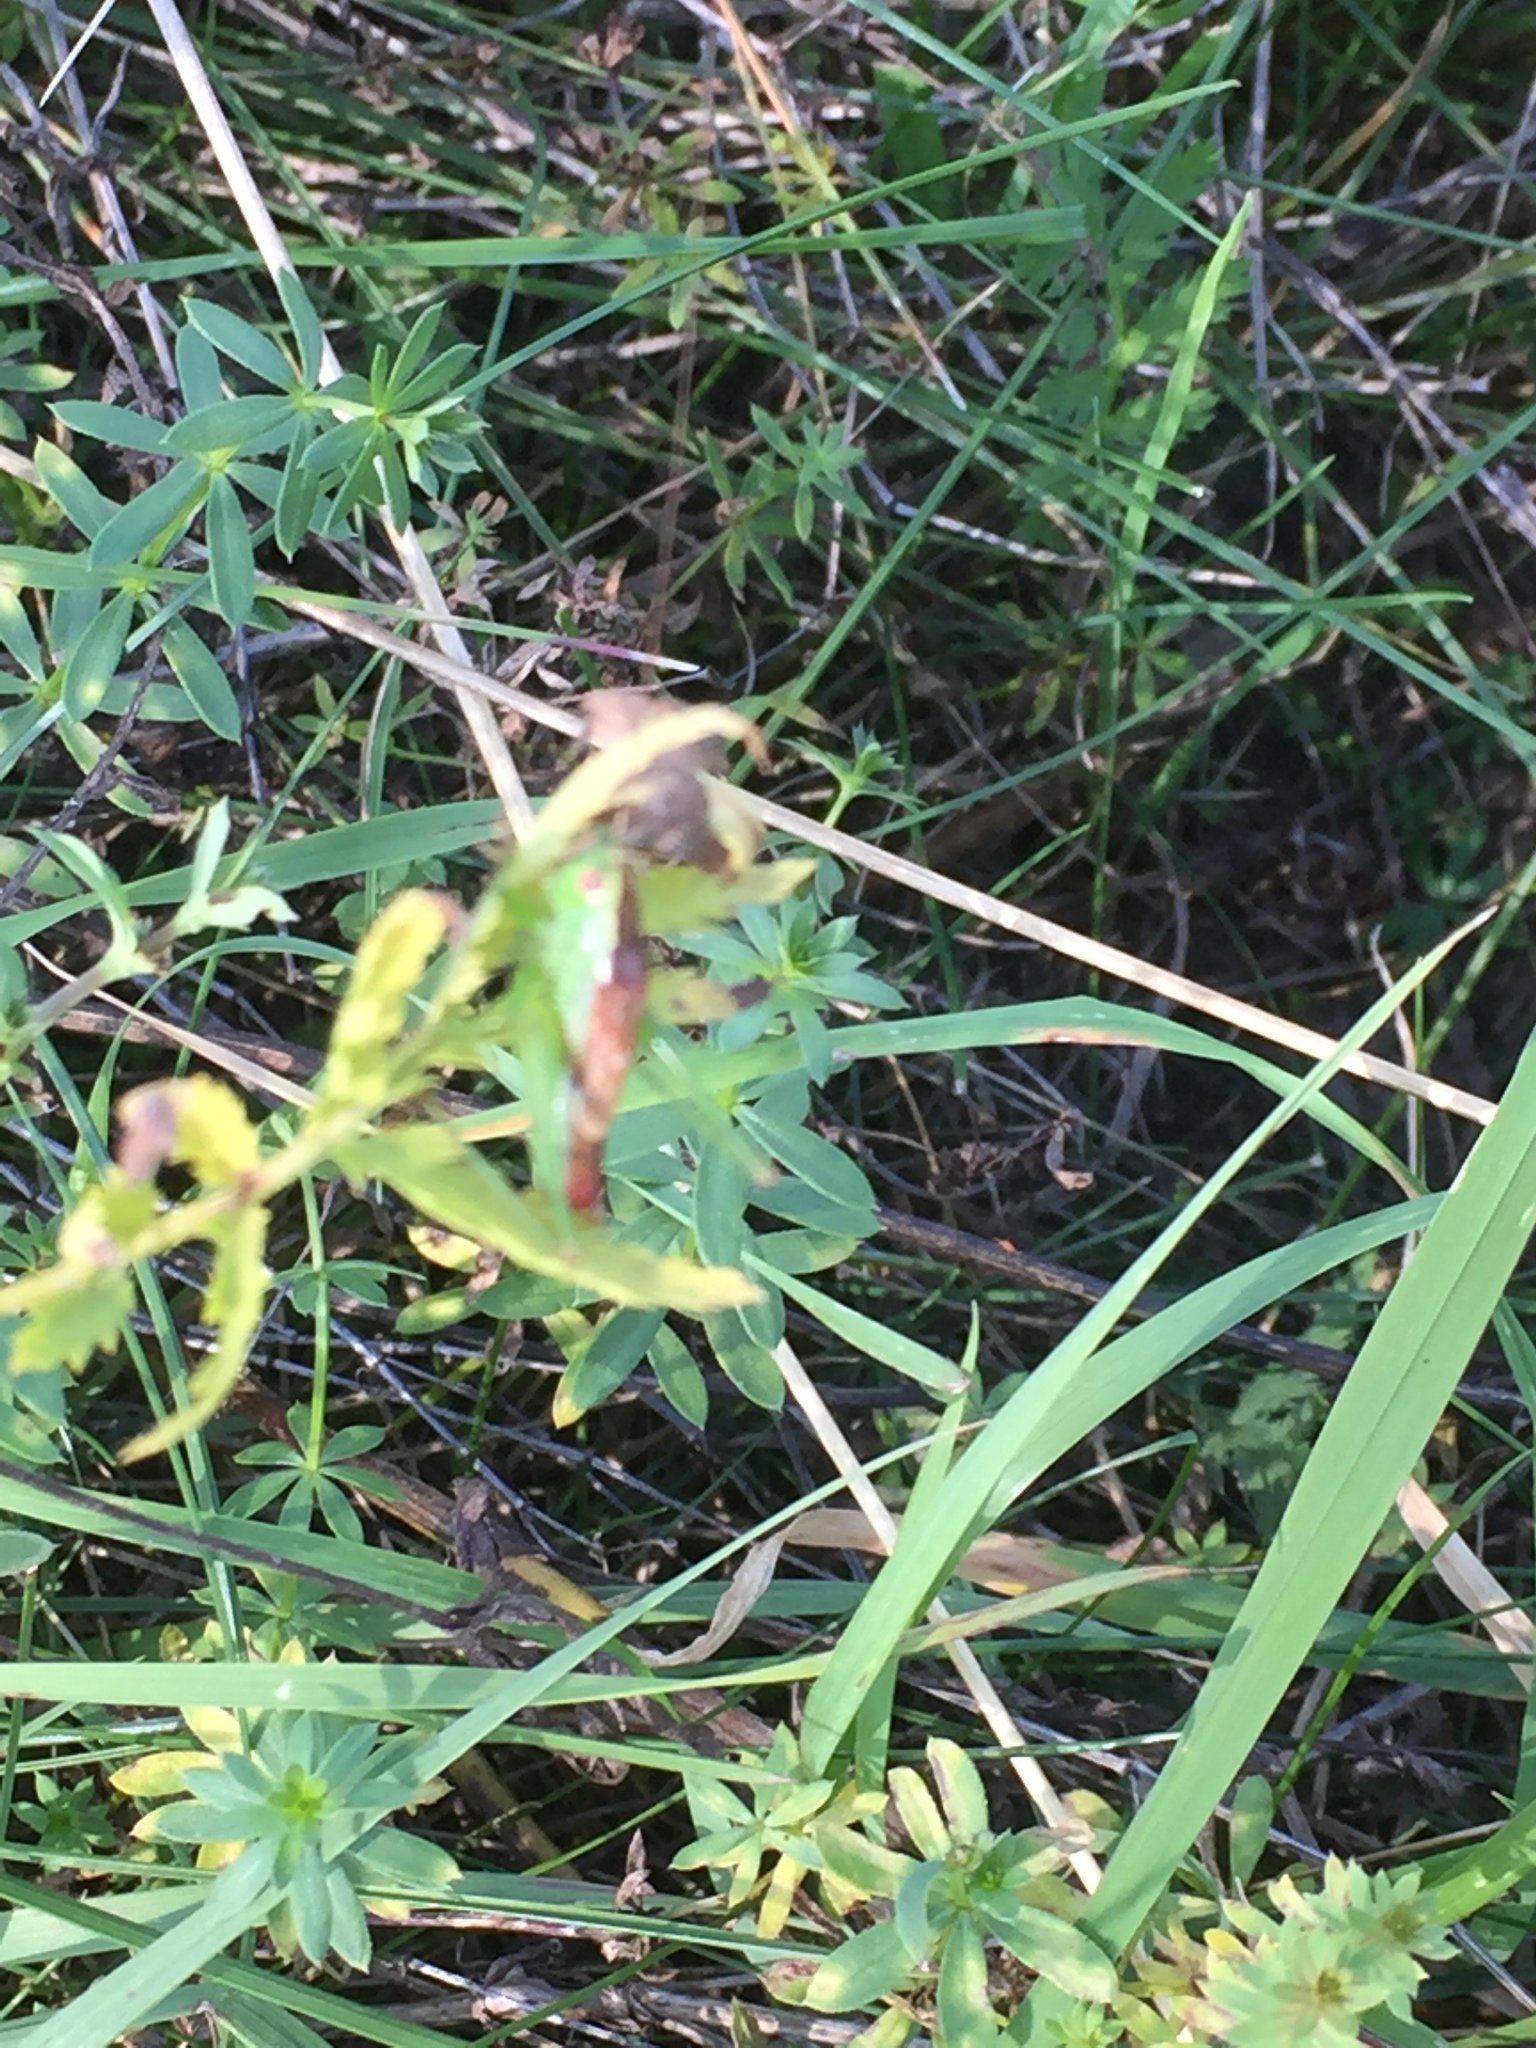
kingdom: Animalia
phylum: Arthropoda
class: Insecta
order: Orthoptera
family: Tettigoniidae
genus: Conocephalus
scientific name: Conocephalus dorsalis
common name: Short-winged conehead
